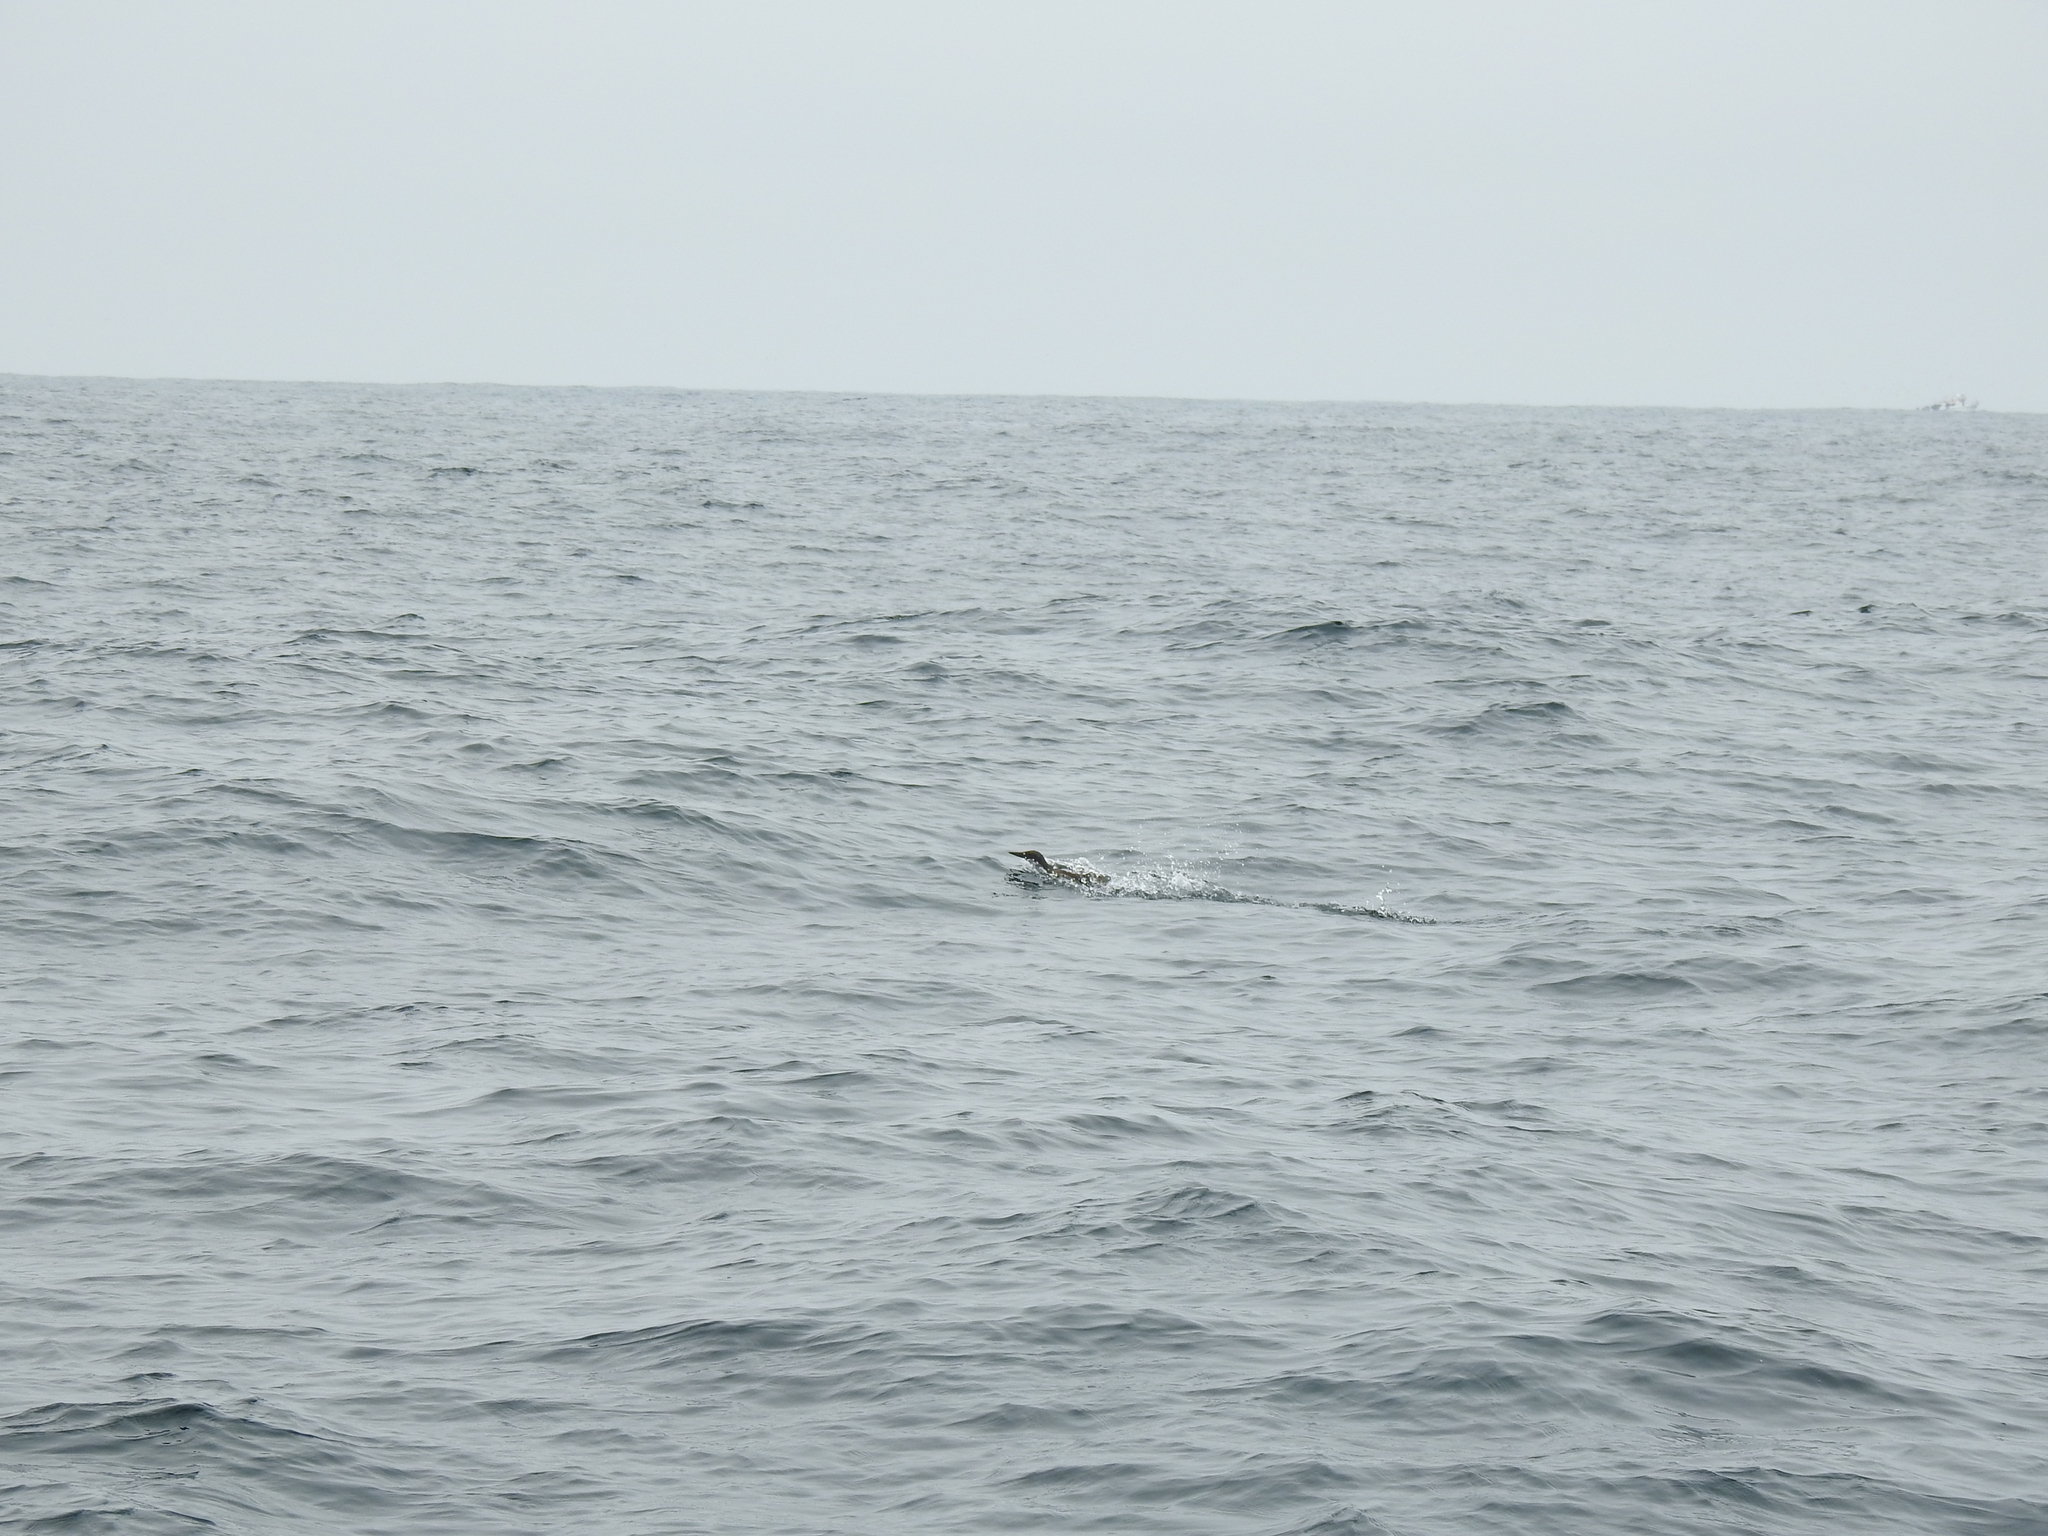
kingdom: Animalia
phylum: Chordata
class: Aves
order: Charadriiformes
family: Alcidae
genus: Uria
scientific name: Uria aalge
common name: Common murre
